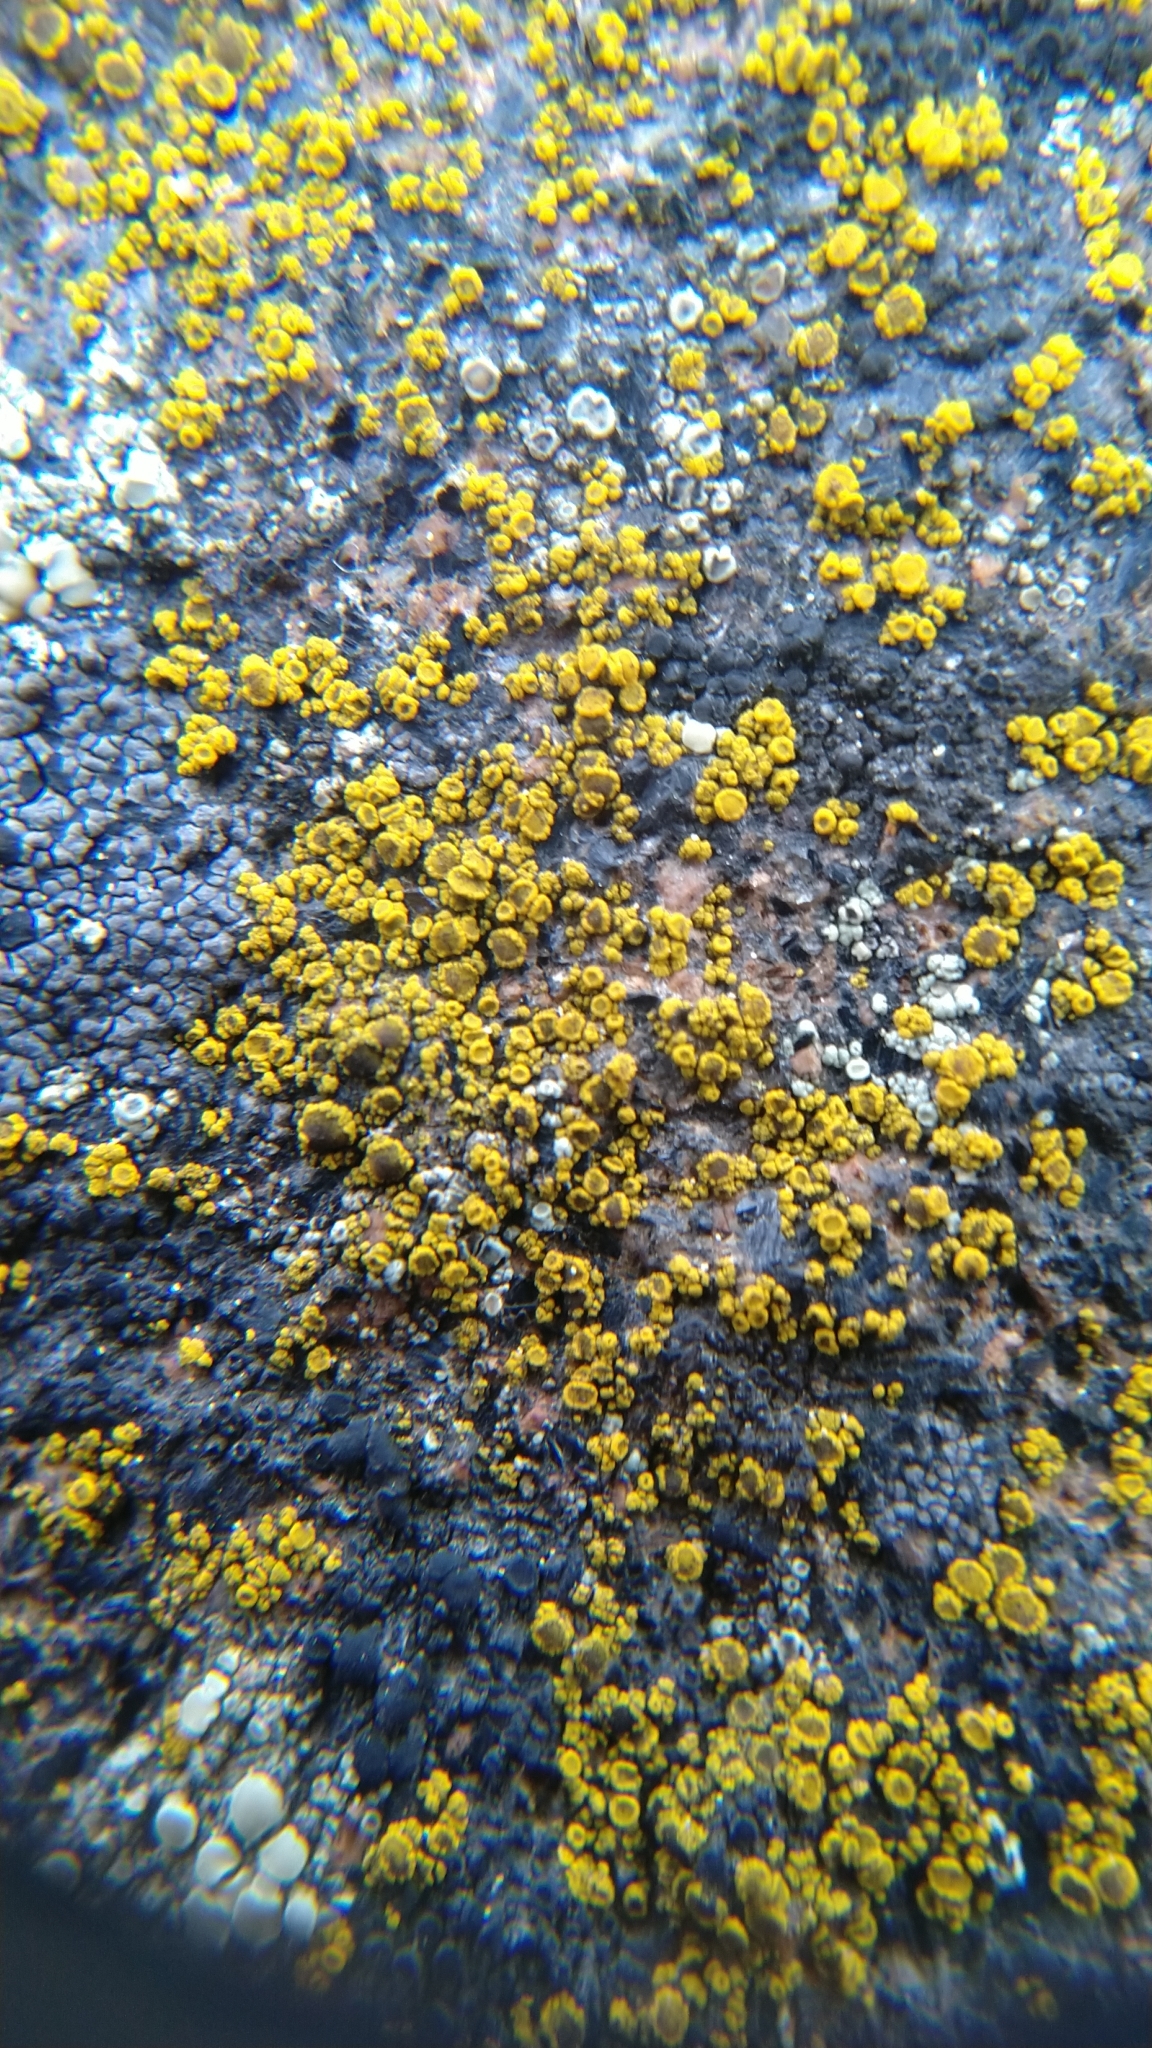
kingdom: Fungi
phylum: Ascomycota
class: Candelariomycetes
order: Candelariales
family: Candelariaceae
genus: Candelariella
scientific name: Candelariella
